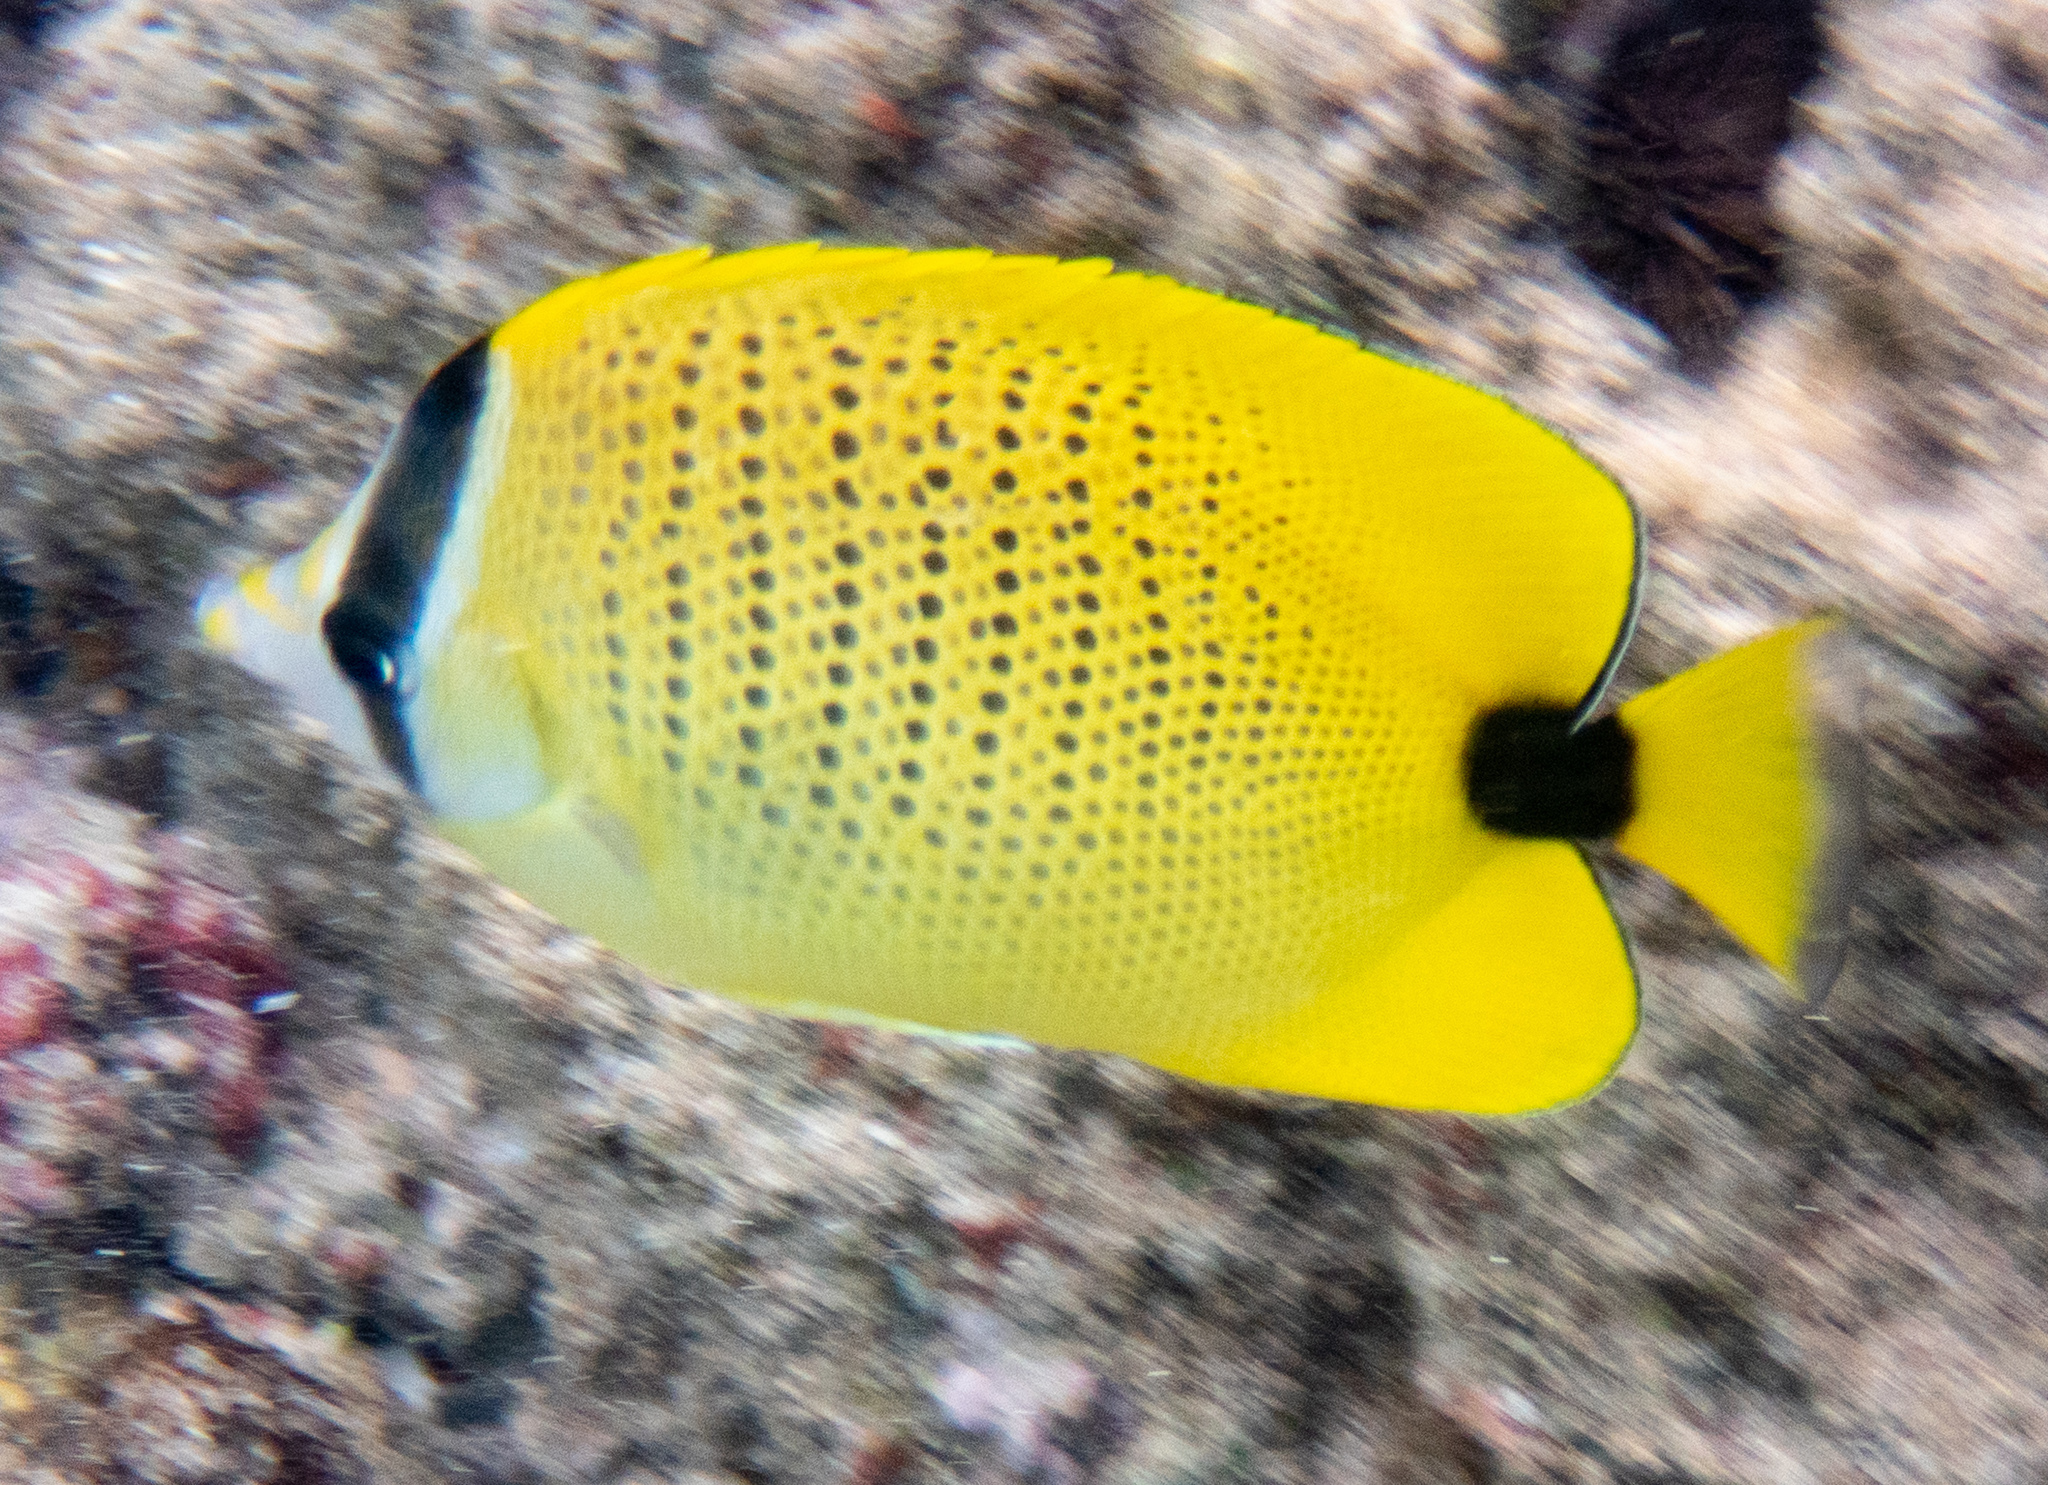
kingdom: Animalia
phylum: Chordata
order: Perciformes
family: Chaetodontidae
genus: Chaetodon
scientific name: Chaetodon miliaris
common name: Lemon butterflyfish
